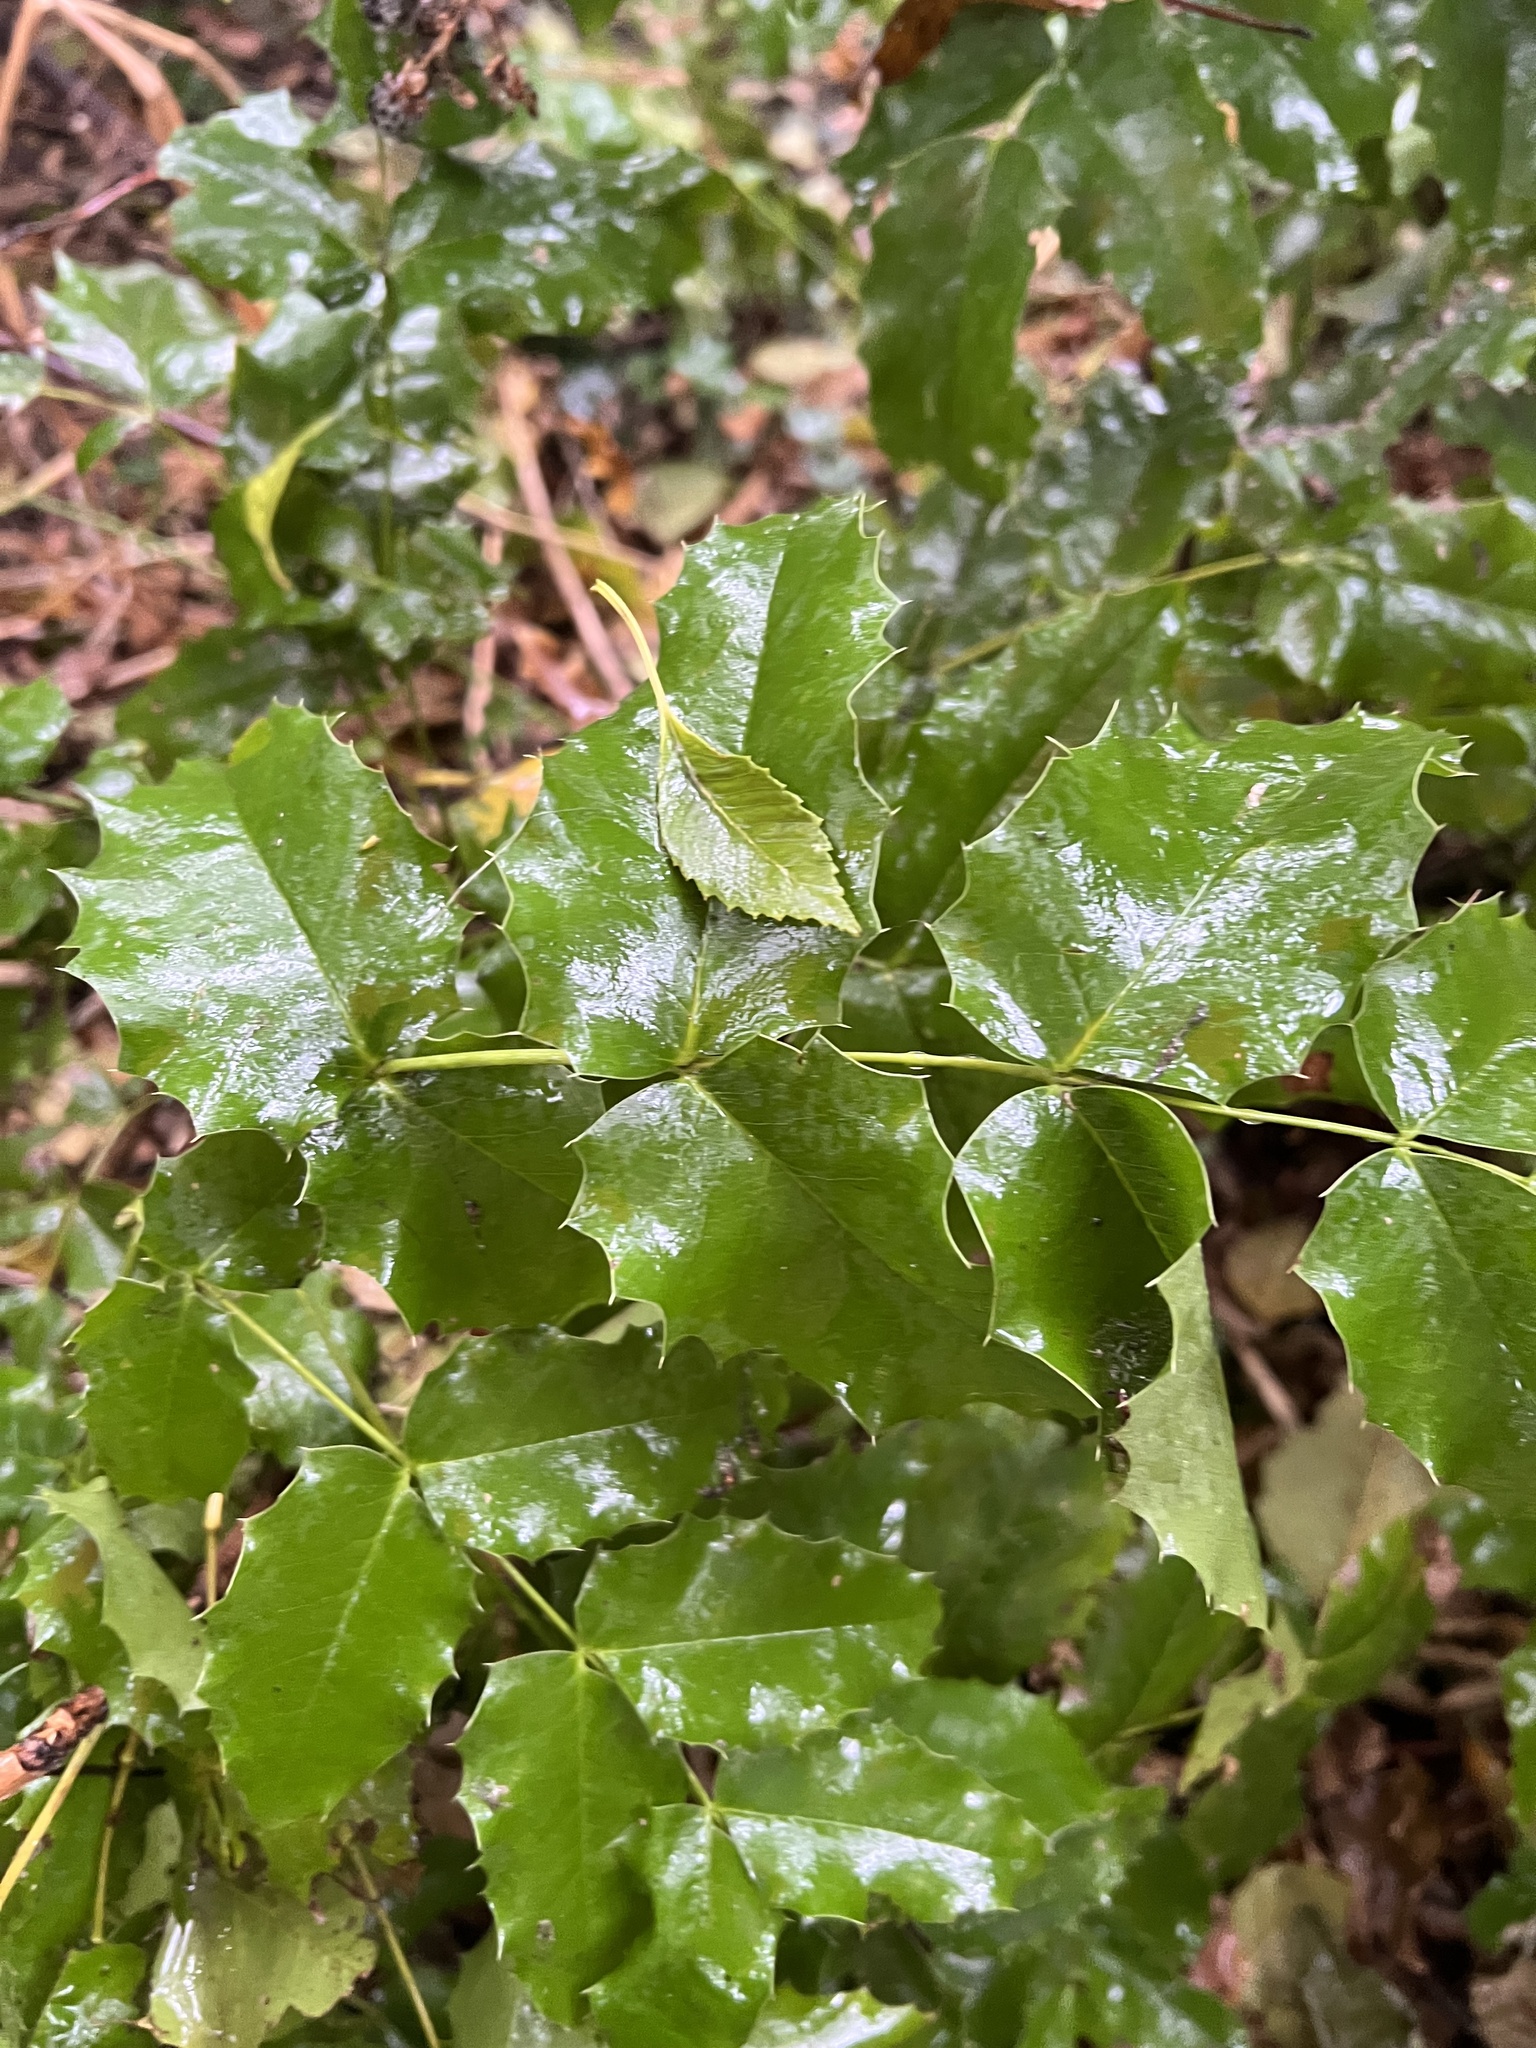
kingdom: Plantae
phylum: Tracheophyta
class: Magnoliopsida
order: Ranunculales
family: Berberidaceae
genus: Mahonia
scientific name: Mahonia aquifolium
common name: Oregon-grape
